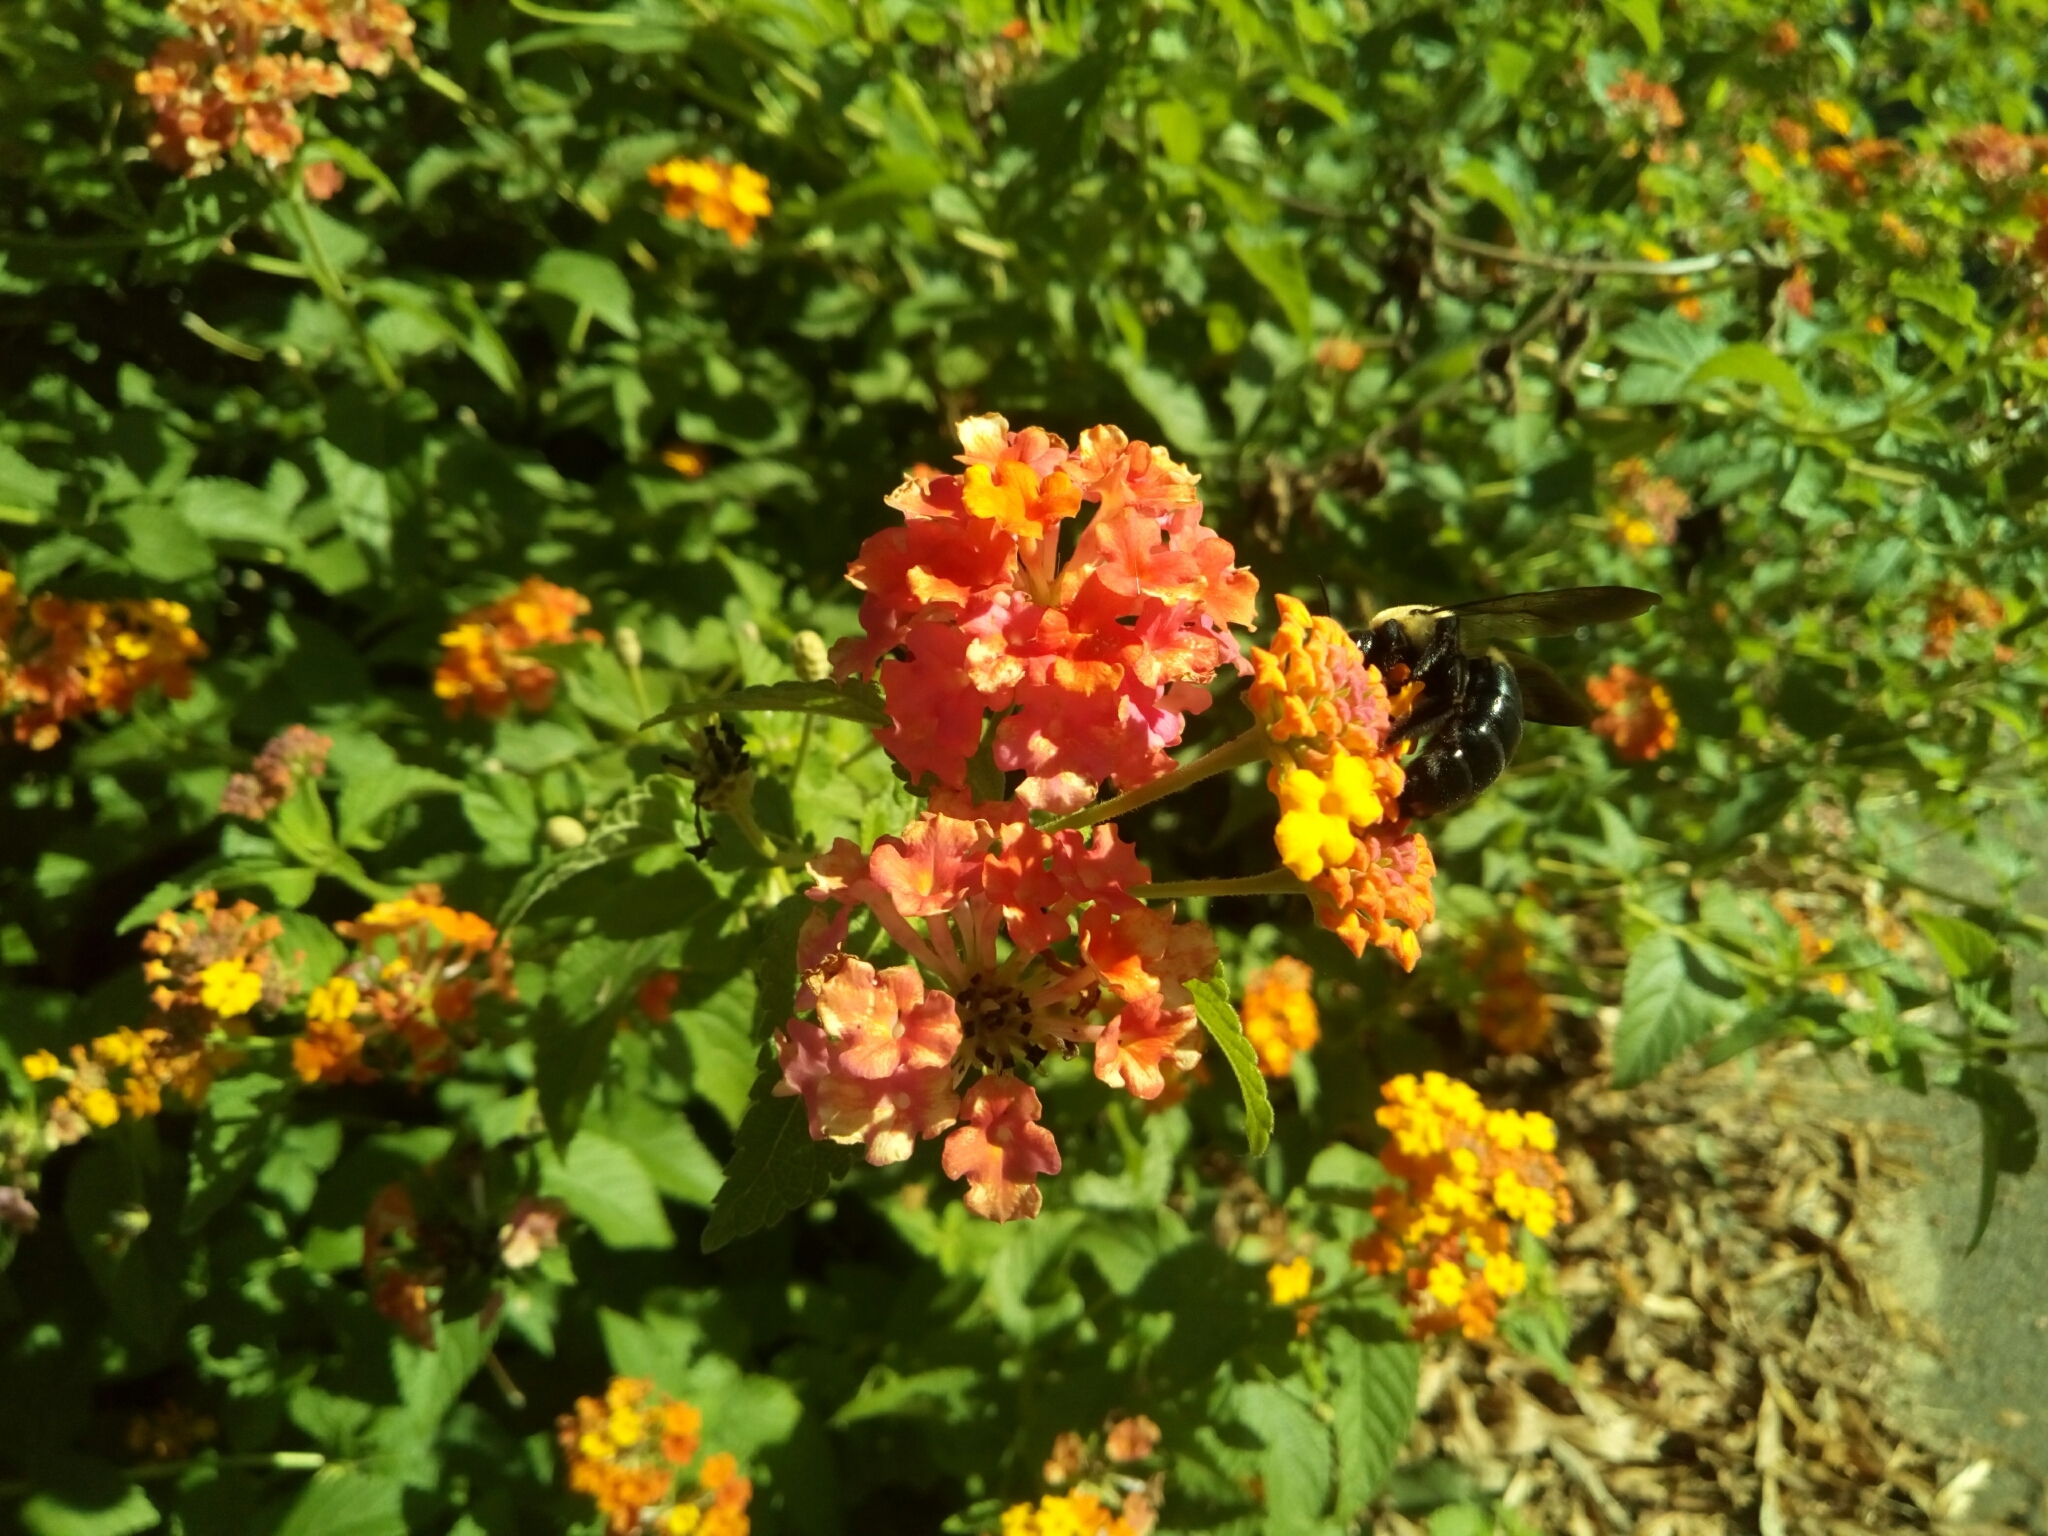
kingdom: Animalia
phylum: Arthropoda
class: Insecta
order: Hymenoptera
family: Apidae
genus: Xylocopa
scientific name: Xylocopa virginica
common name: Carpenter bee
